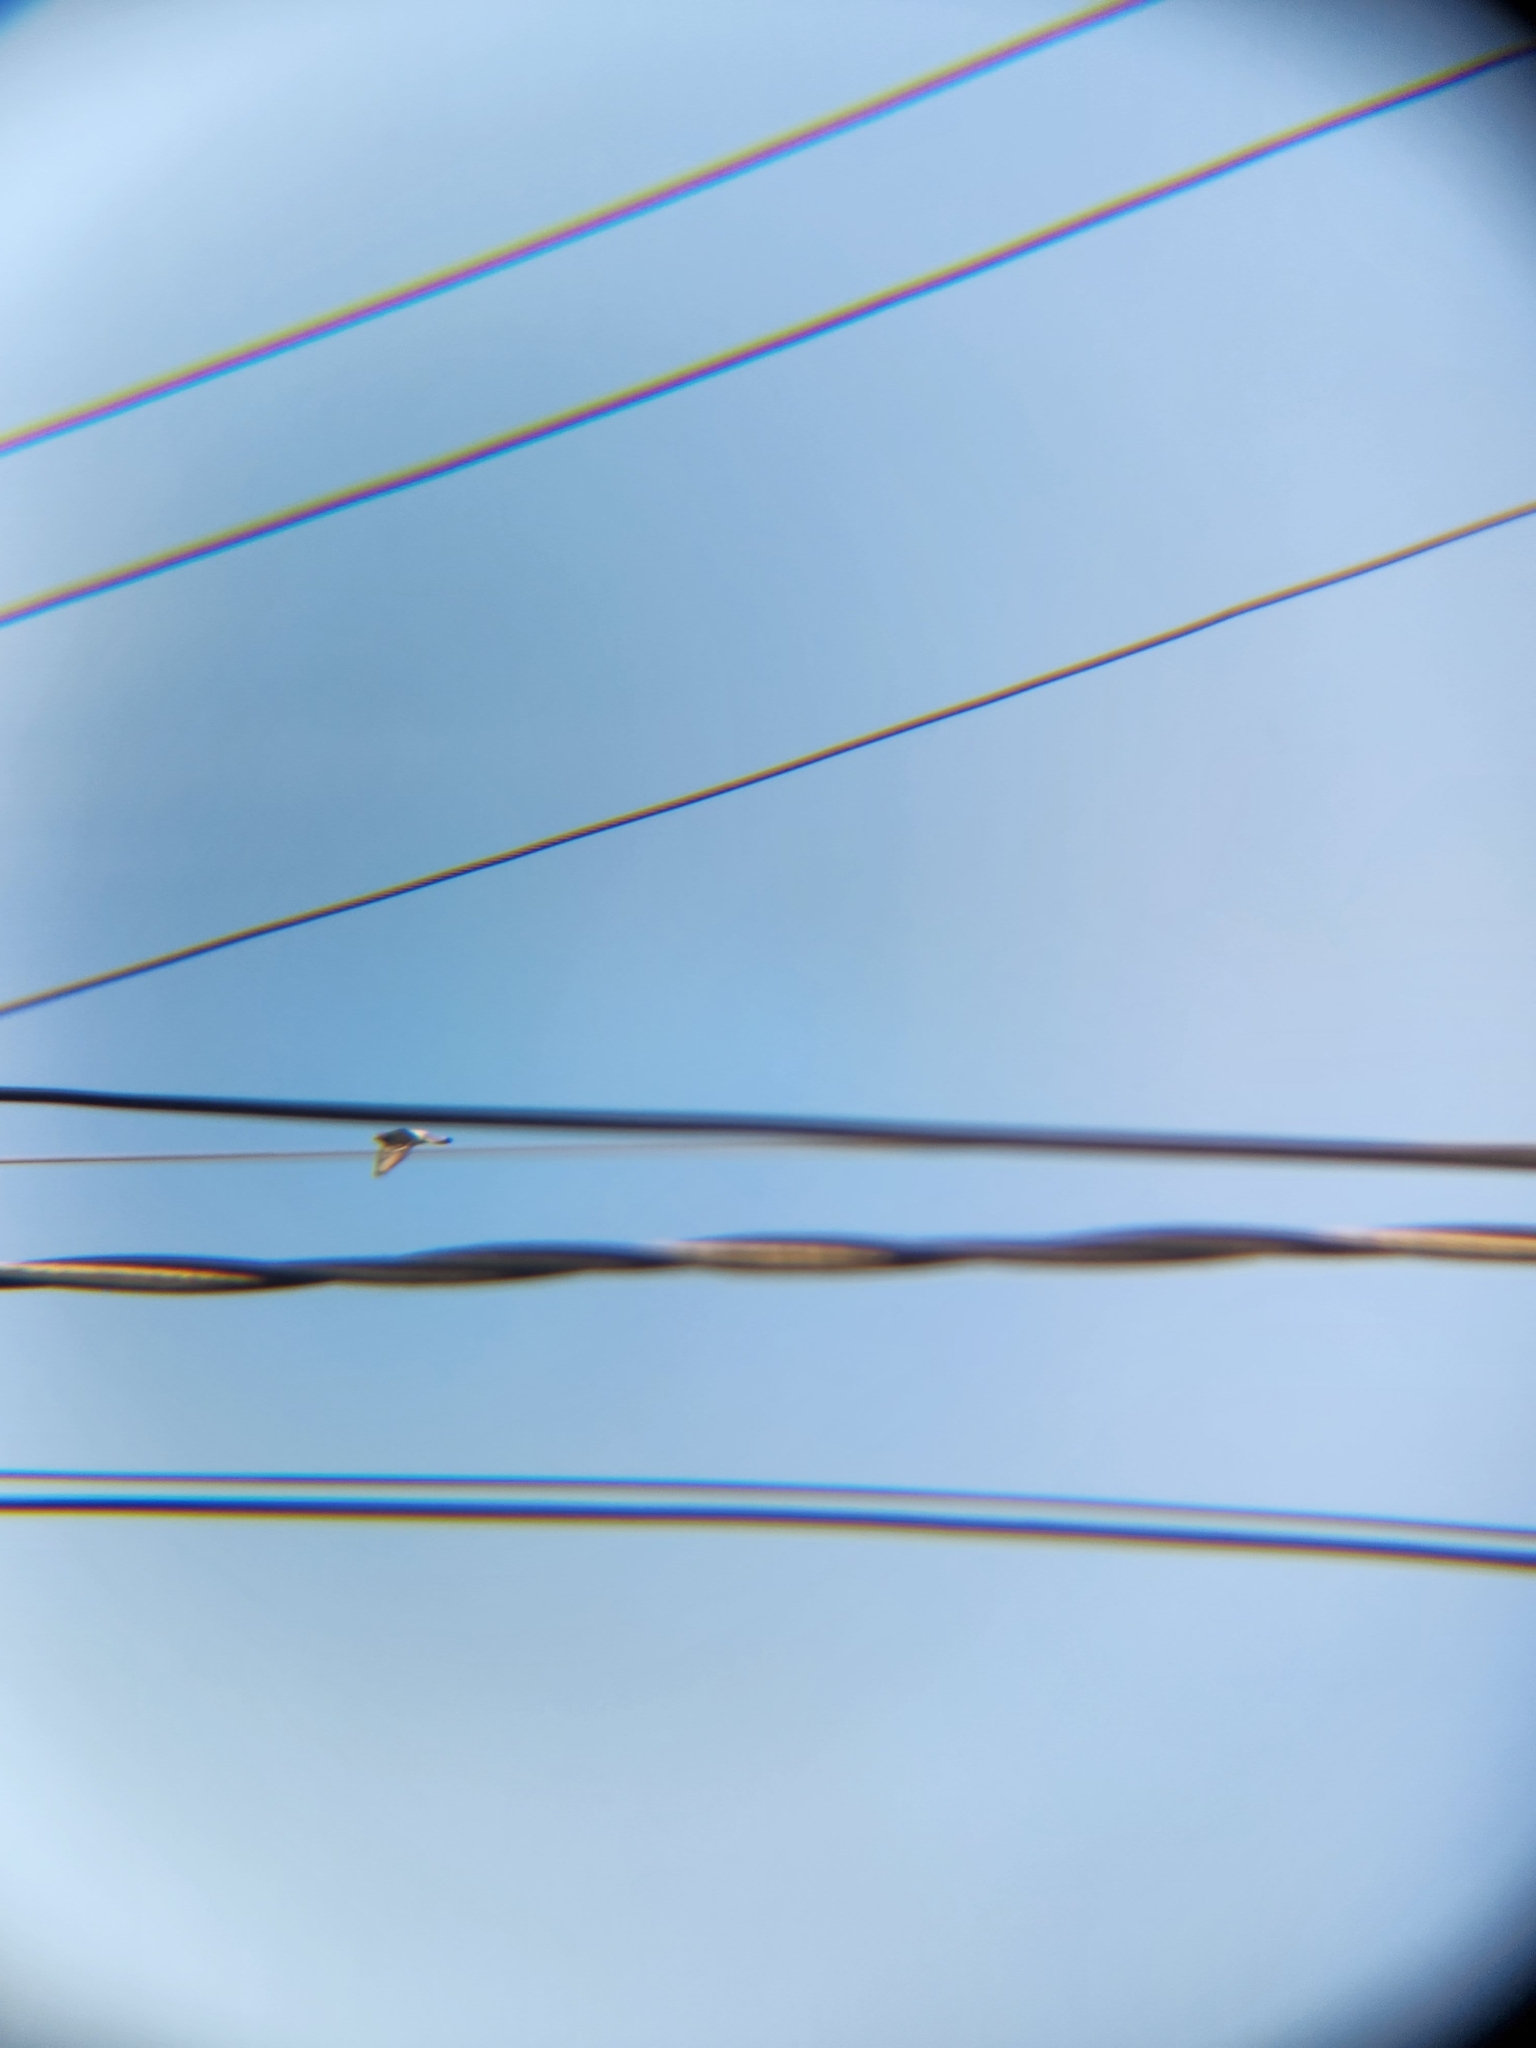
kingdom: Animalia
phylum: Chordata
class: Aves
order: Columbiformes
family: Columbidae
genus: Columba
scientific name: Columba livia
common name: Rock pigeon
